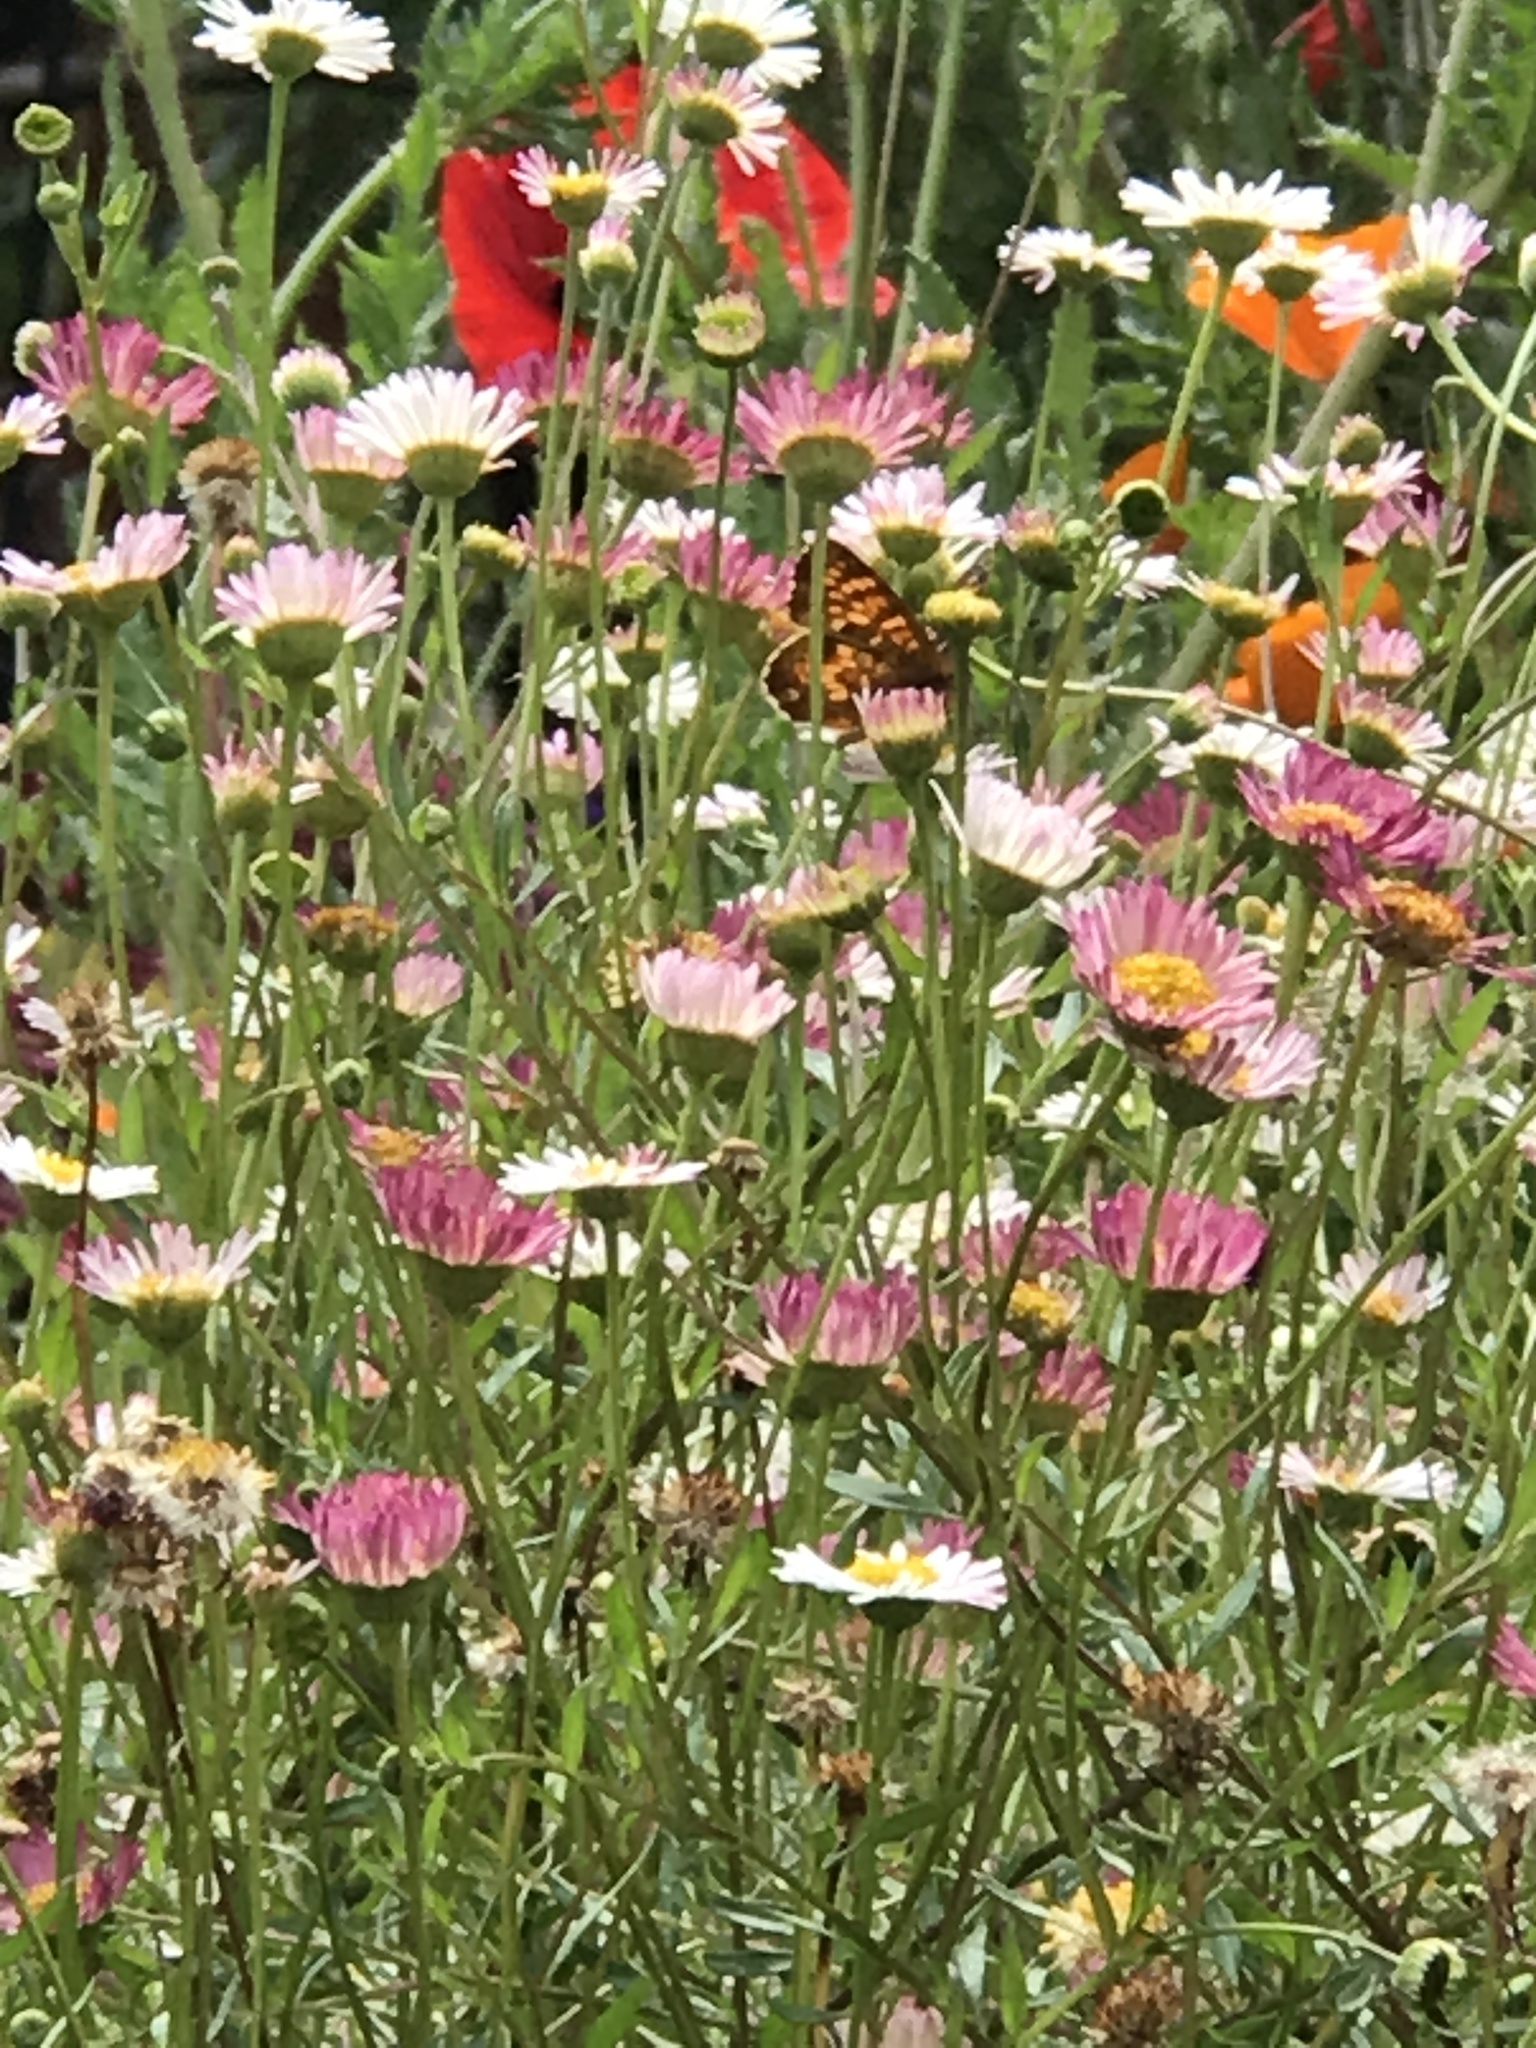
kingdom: Animalia
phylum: Arthropoda
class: Insecta
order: Lepidoptera
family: Nymphalidae
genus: Phyciodes
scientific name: Phyciodes tharos
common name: Pearl crescent
